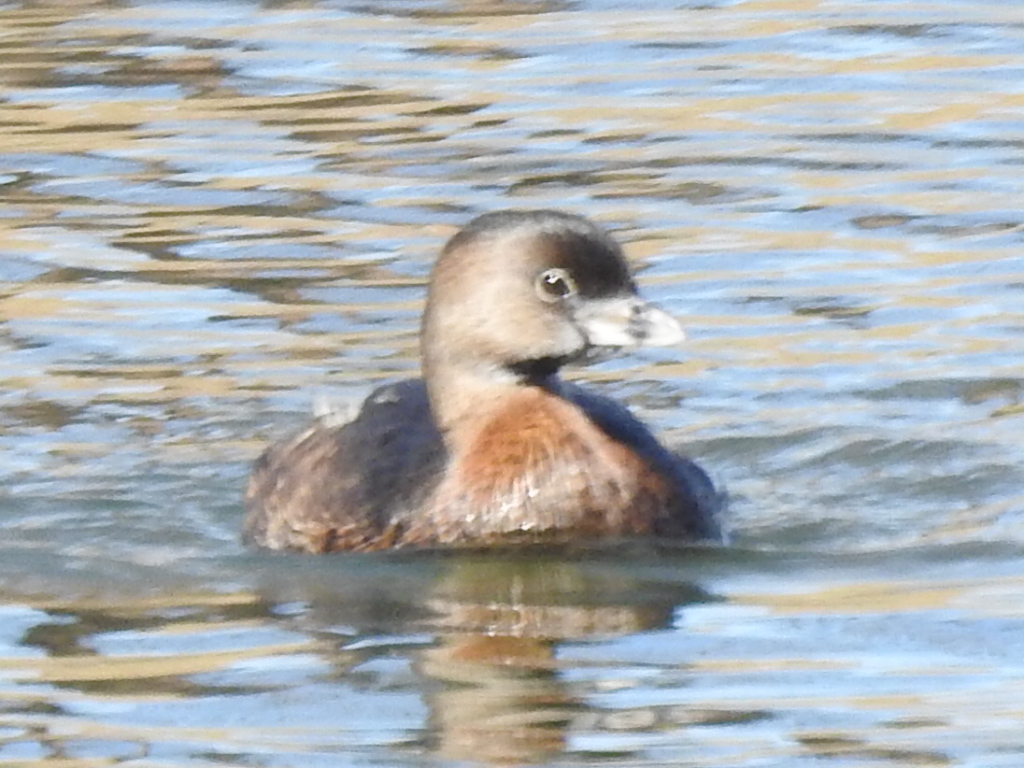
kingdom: Animalia
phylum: Chordata
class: Aves
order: Podicipediformes
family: Podicipedidae
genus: Podilymbus
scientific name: Podilymbus podiceps
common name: Pied-billed grebe
